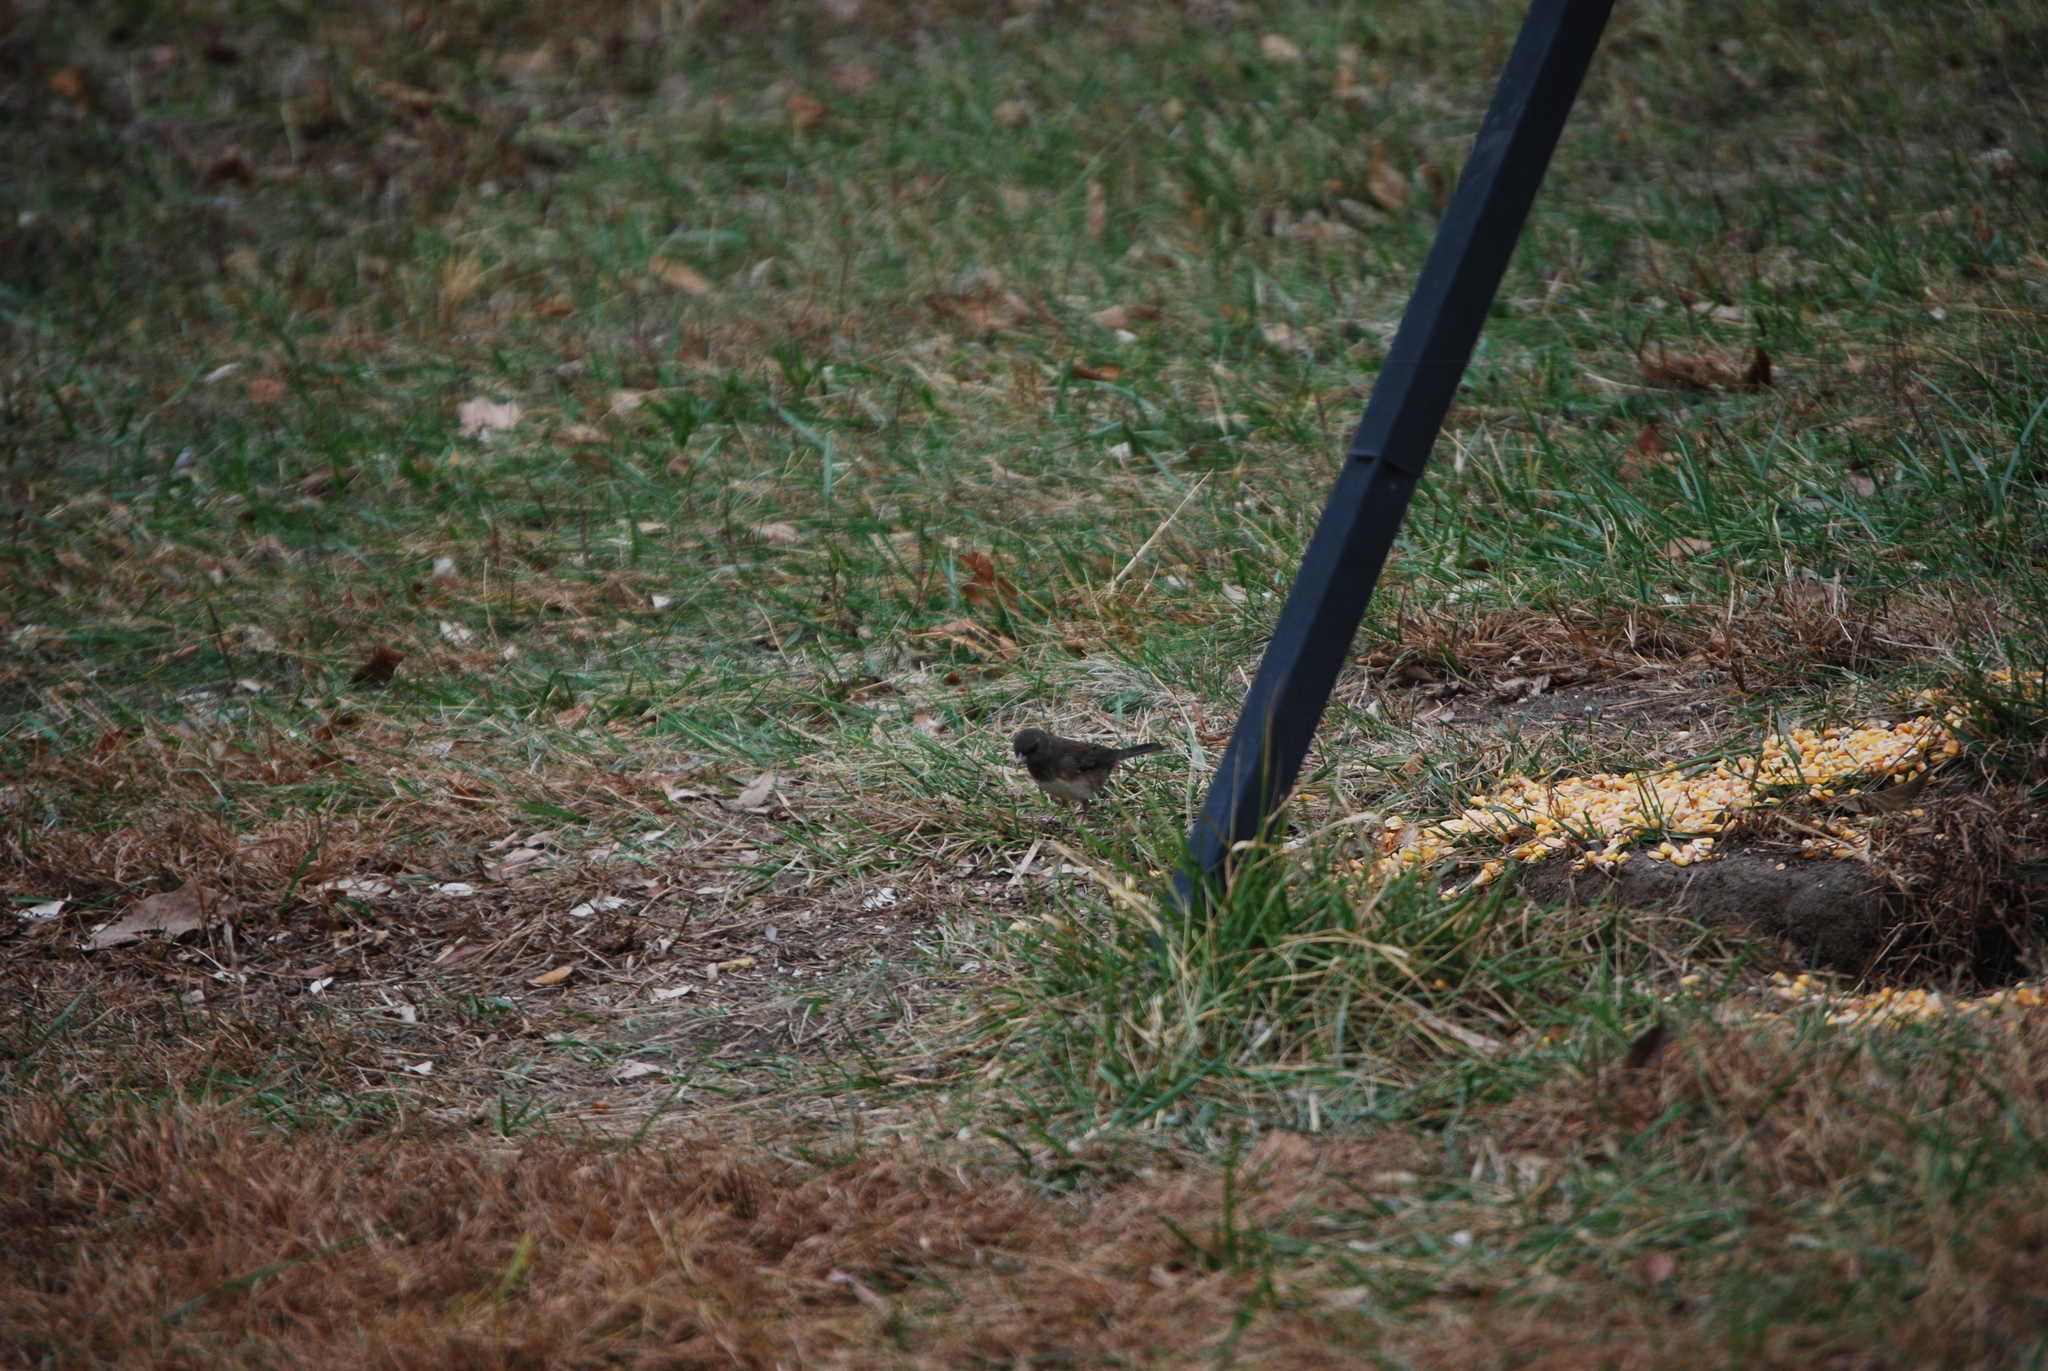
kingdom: Animalia
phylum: Chordata
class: Aves
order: Passeriformes
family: Passerellidae
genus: Junco
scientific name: Junco hyemalis
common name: Dark-eyed junco
